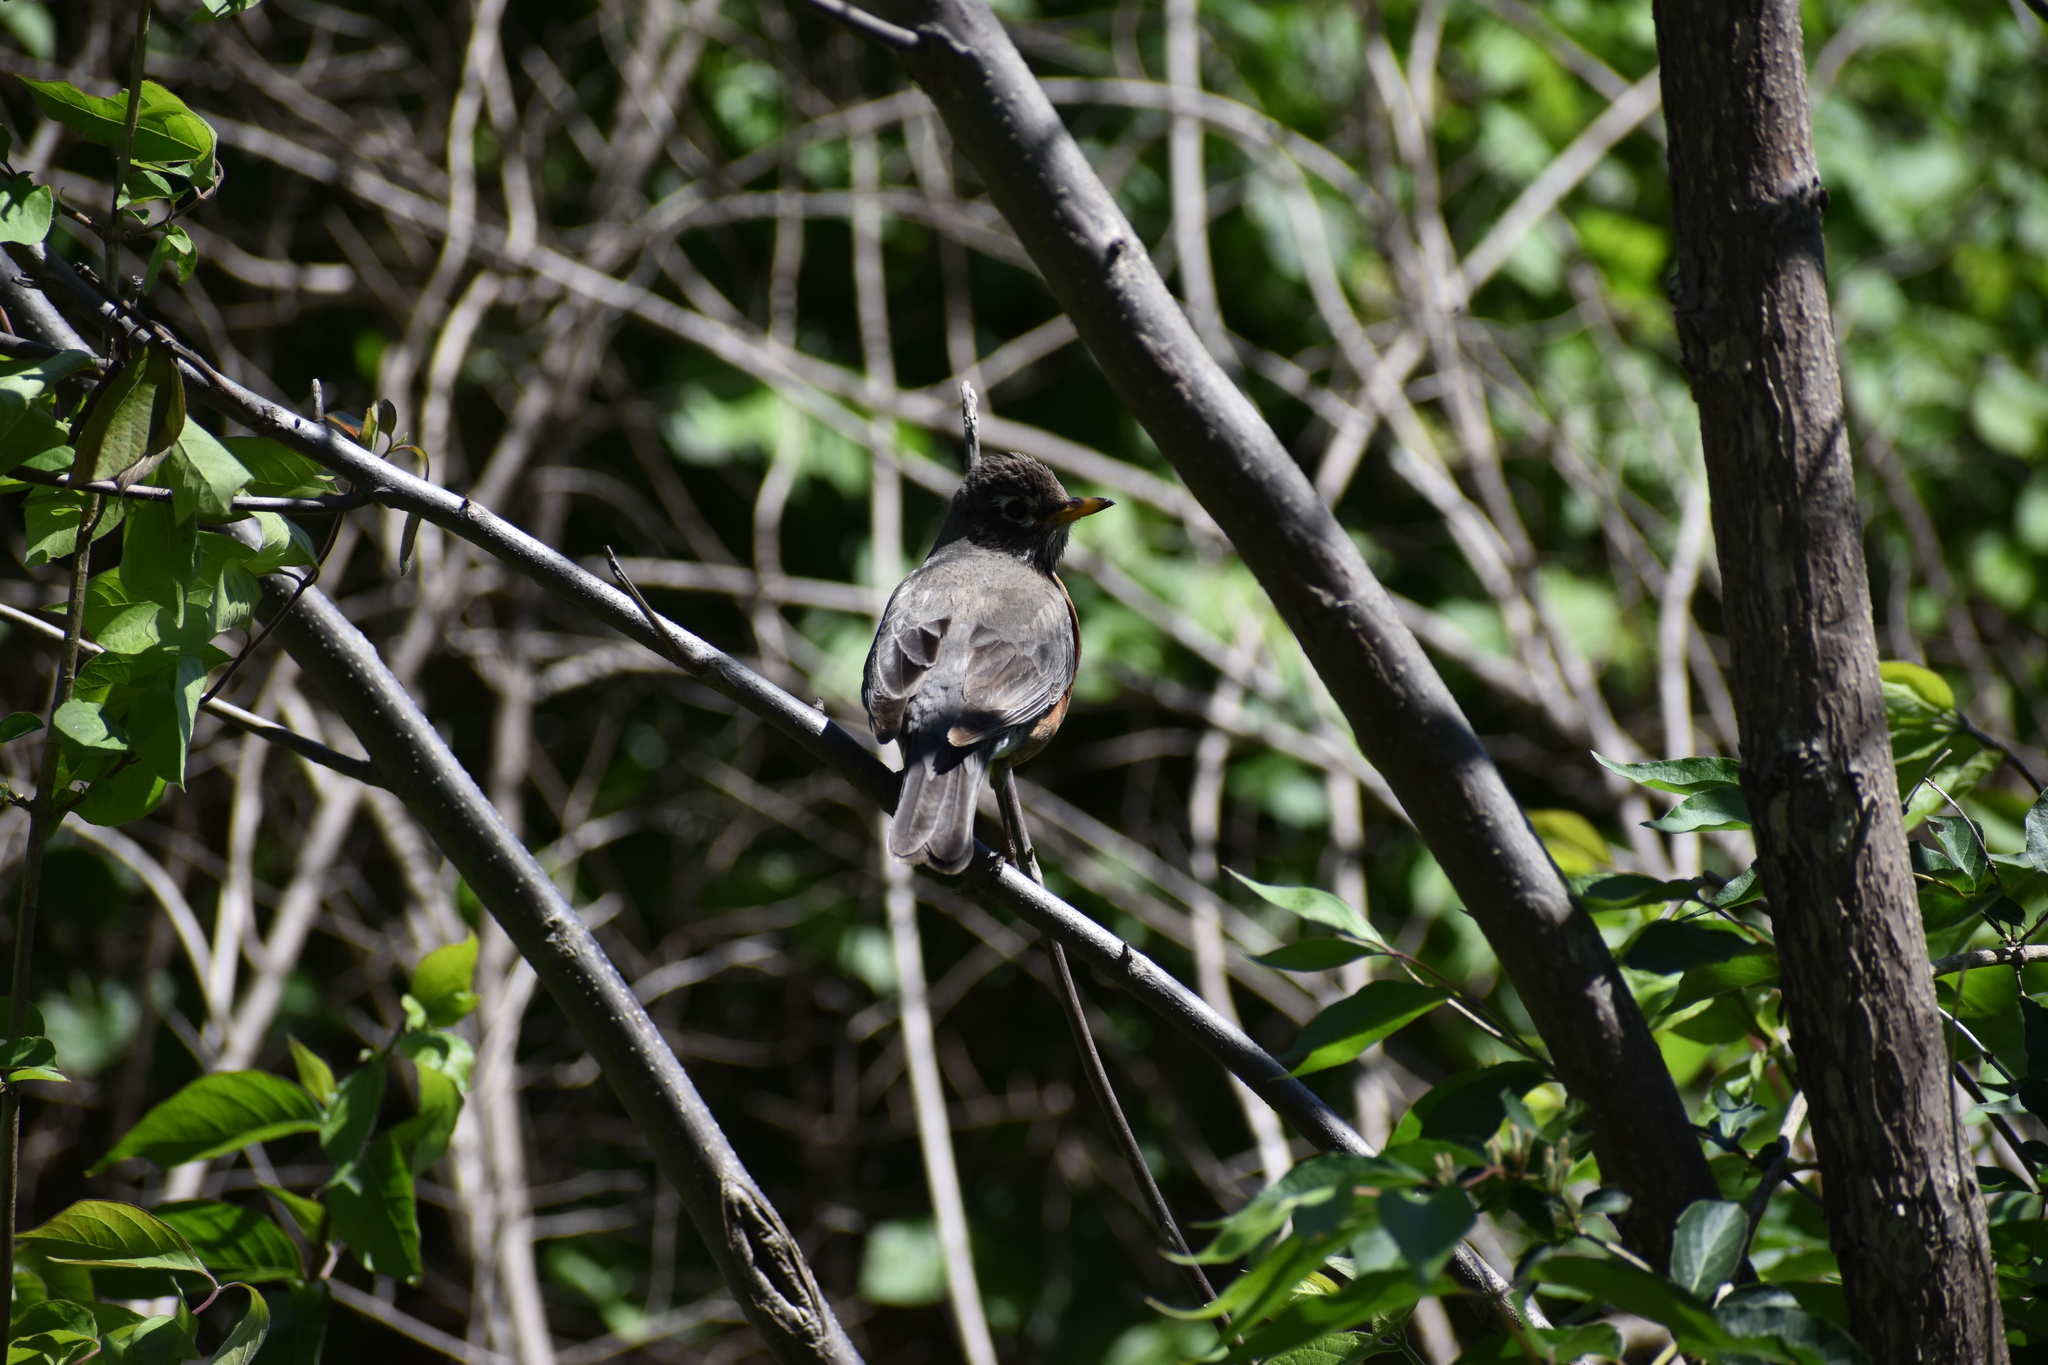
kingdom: Animalia
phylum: Chordata
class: Aves
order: Passeriformes
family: Turdidae
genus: Turdus
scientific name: Turdus migratorius
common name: American robin
